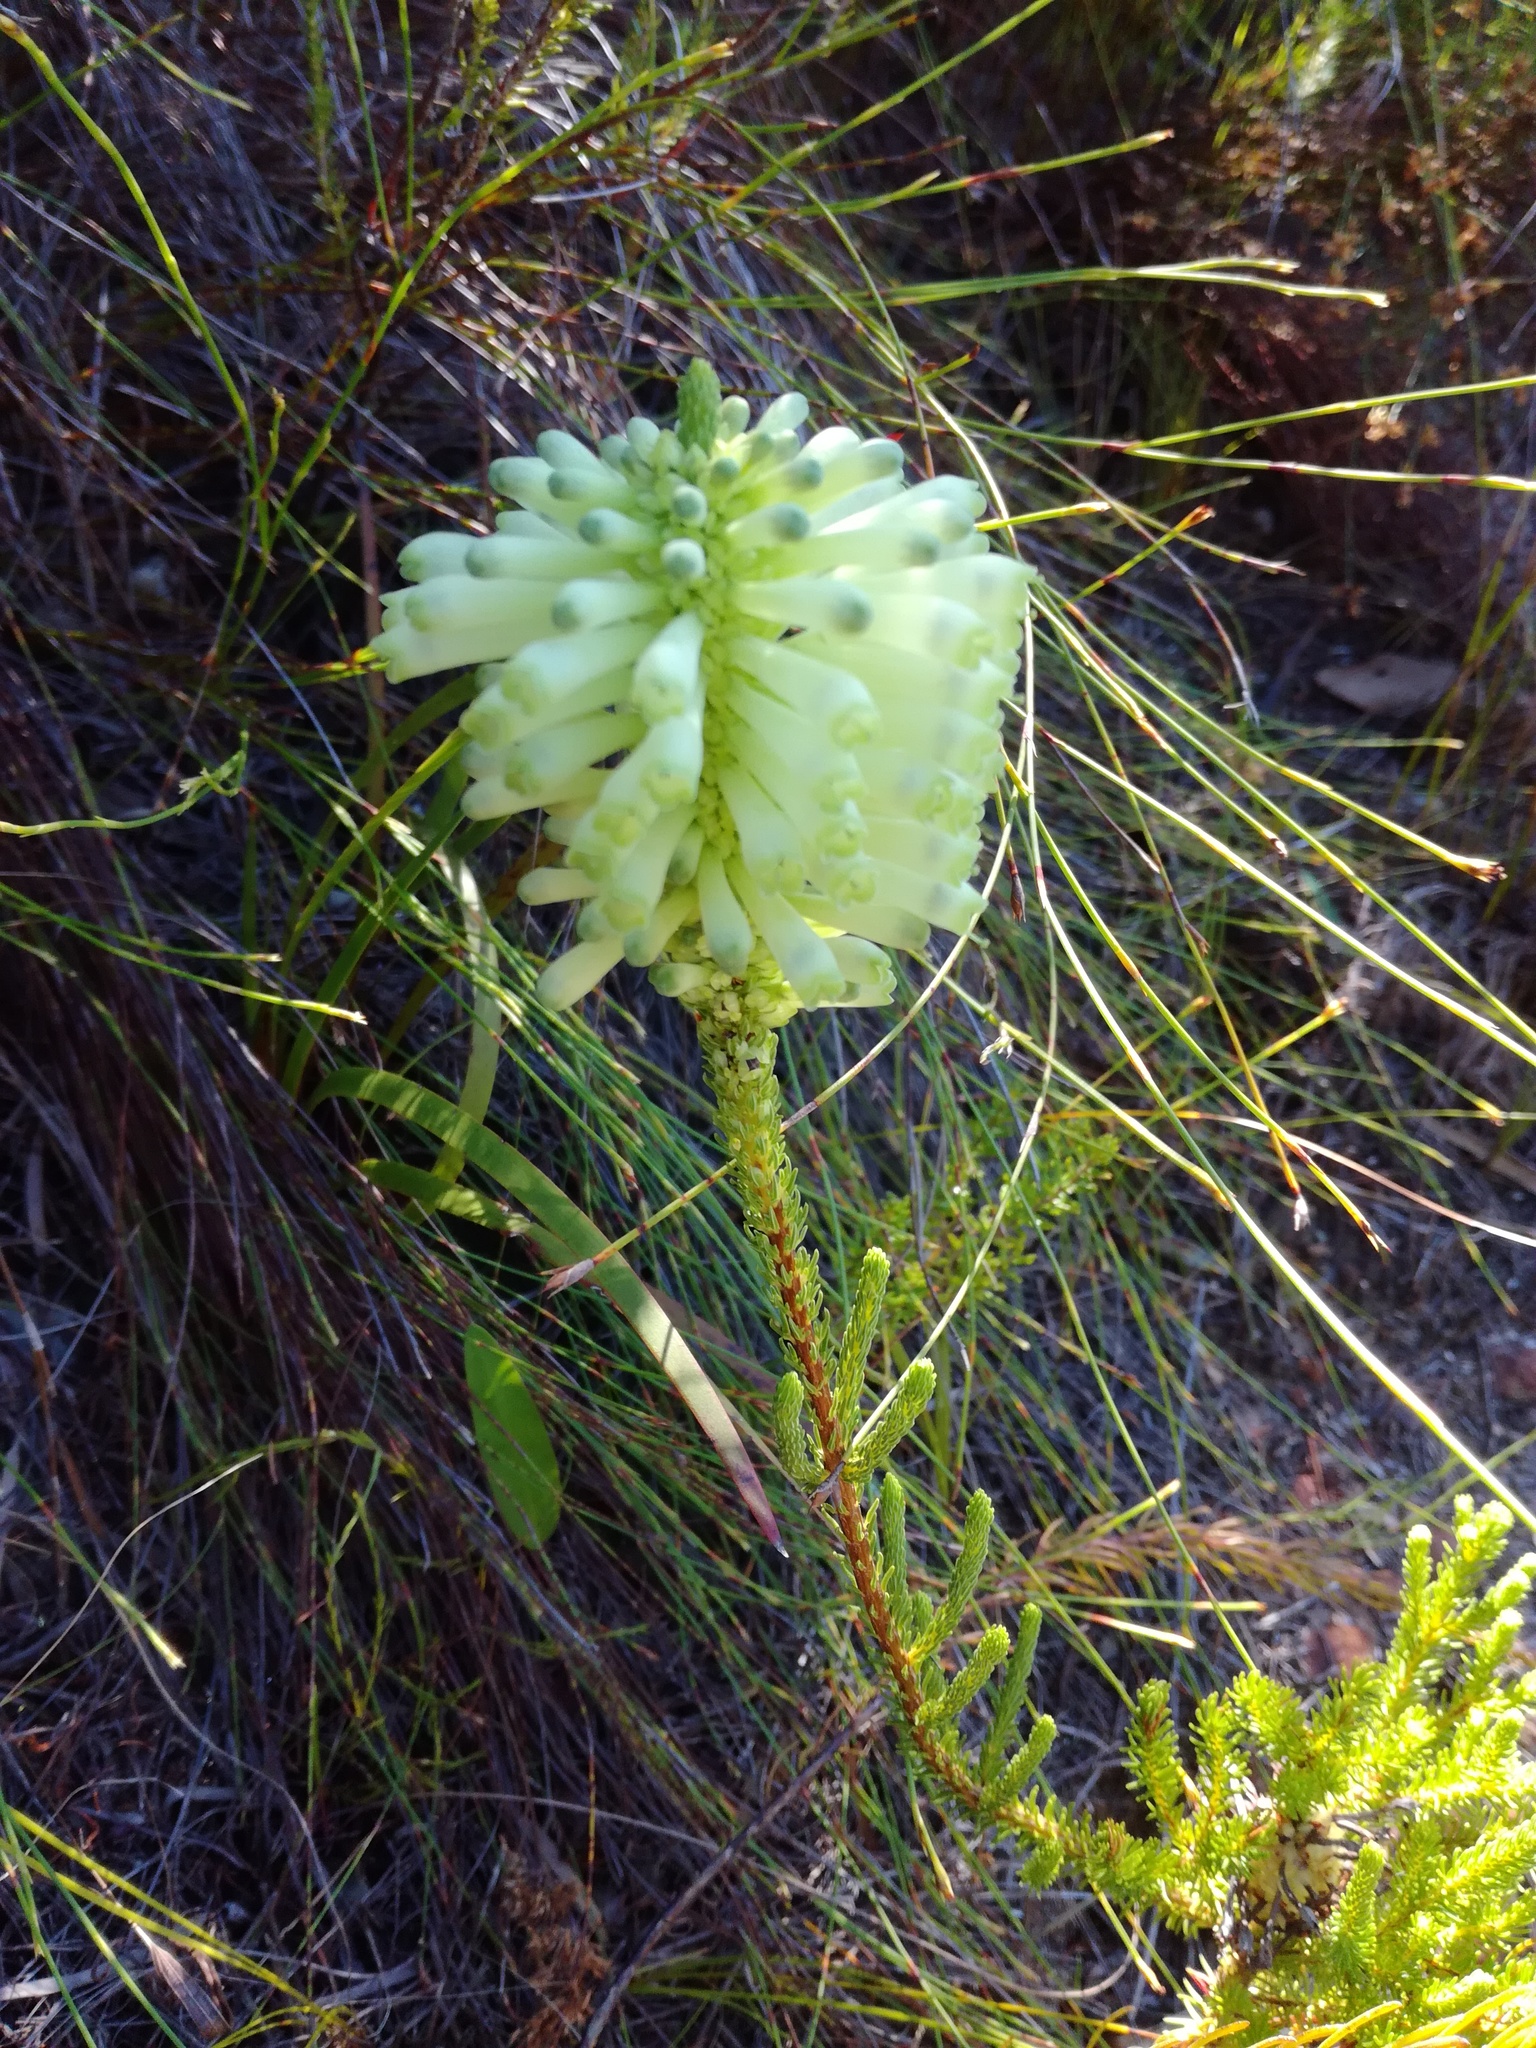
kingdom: Plantae
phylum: Tracheophyta
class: Magnoliopsida
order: Ericales
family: Ericaceae
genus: Erica
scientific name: Erica sessiliflora
